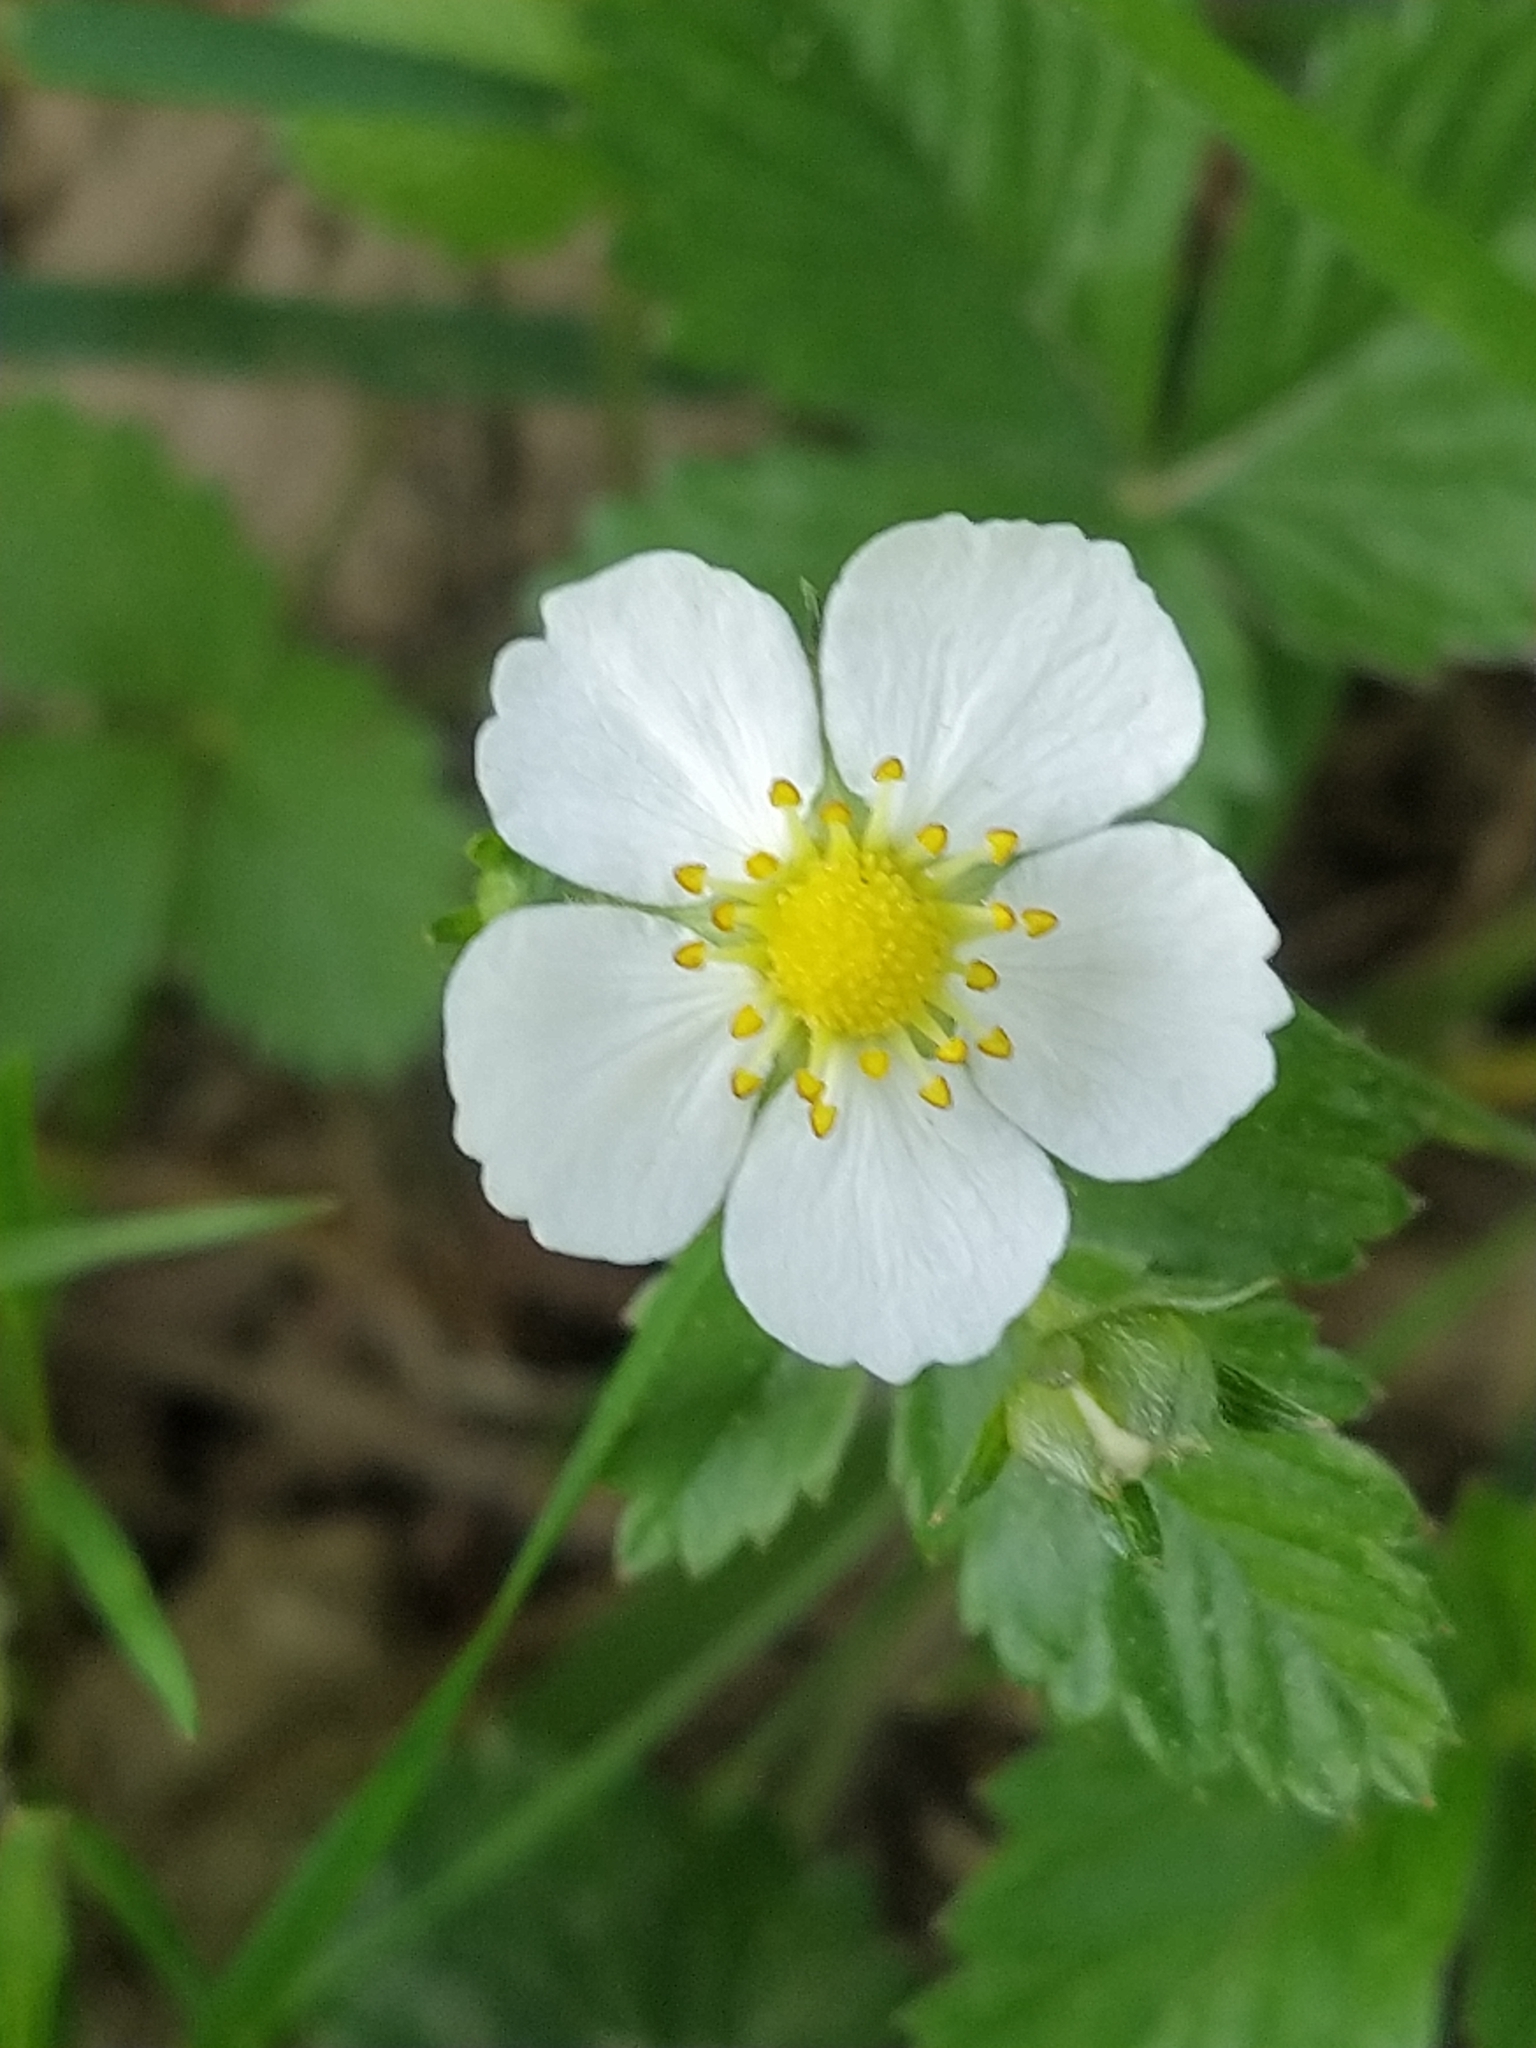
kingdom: Plantae
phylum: Tracheophyta
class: Magnoliopsida
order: Rosales
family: Rosaceae
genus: Fragaria
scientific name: Fragaria vesca
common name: Wild strawberry
